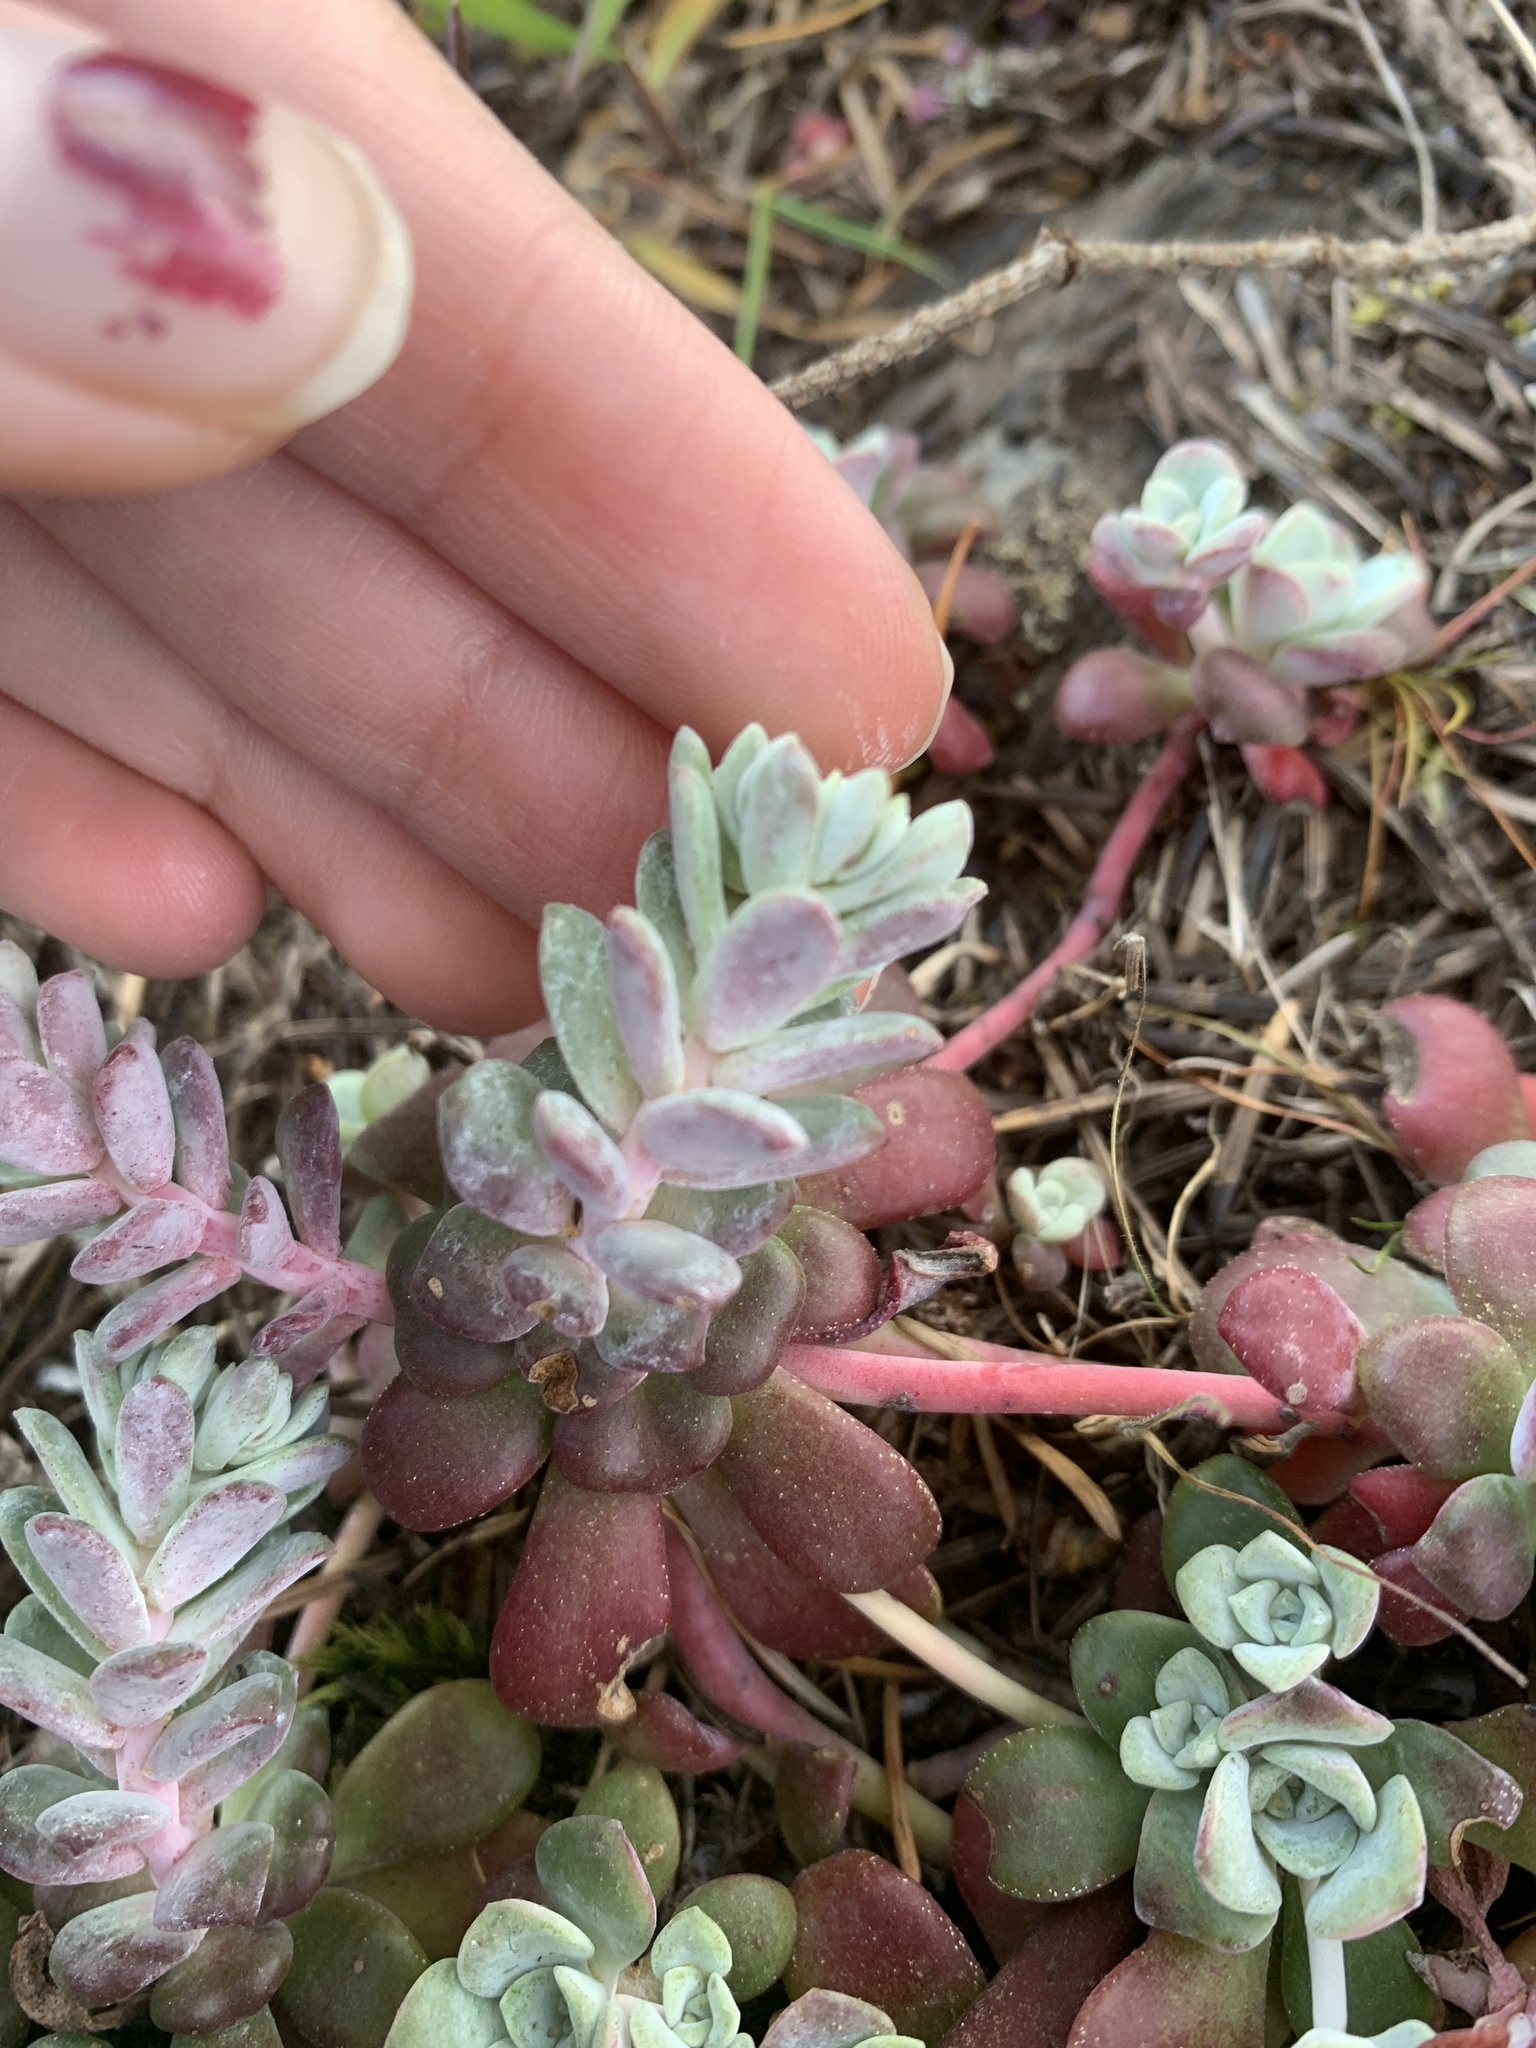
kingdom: Plantae
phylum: Tracheophyta
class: Magnoliopsida
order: Saxifragales
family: Crassulaceae
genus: Sedum
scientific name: Sedum spathulifolium
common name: Colorado stonecrop
